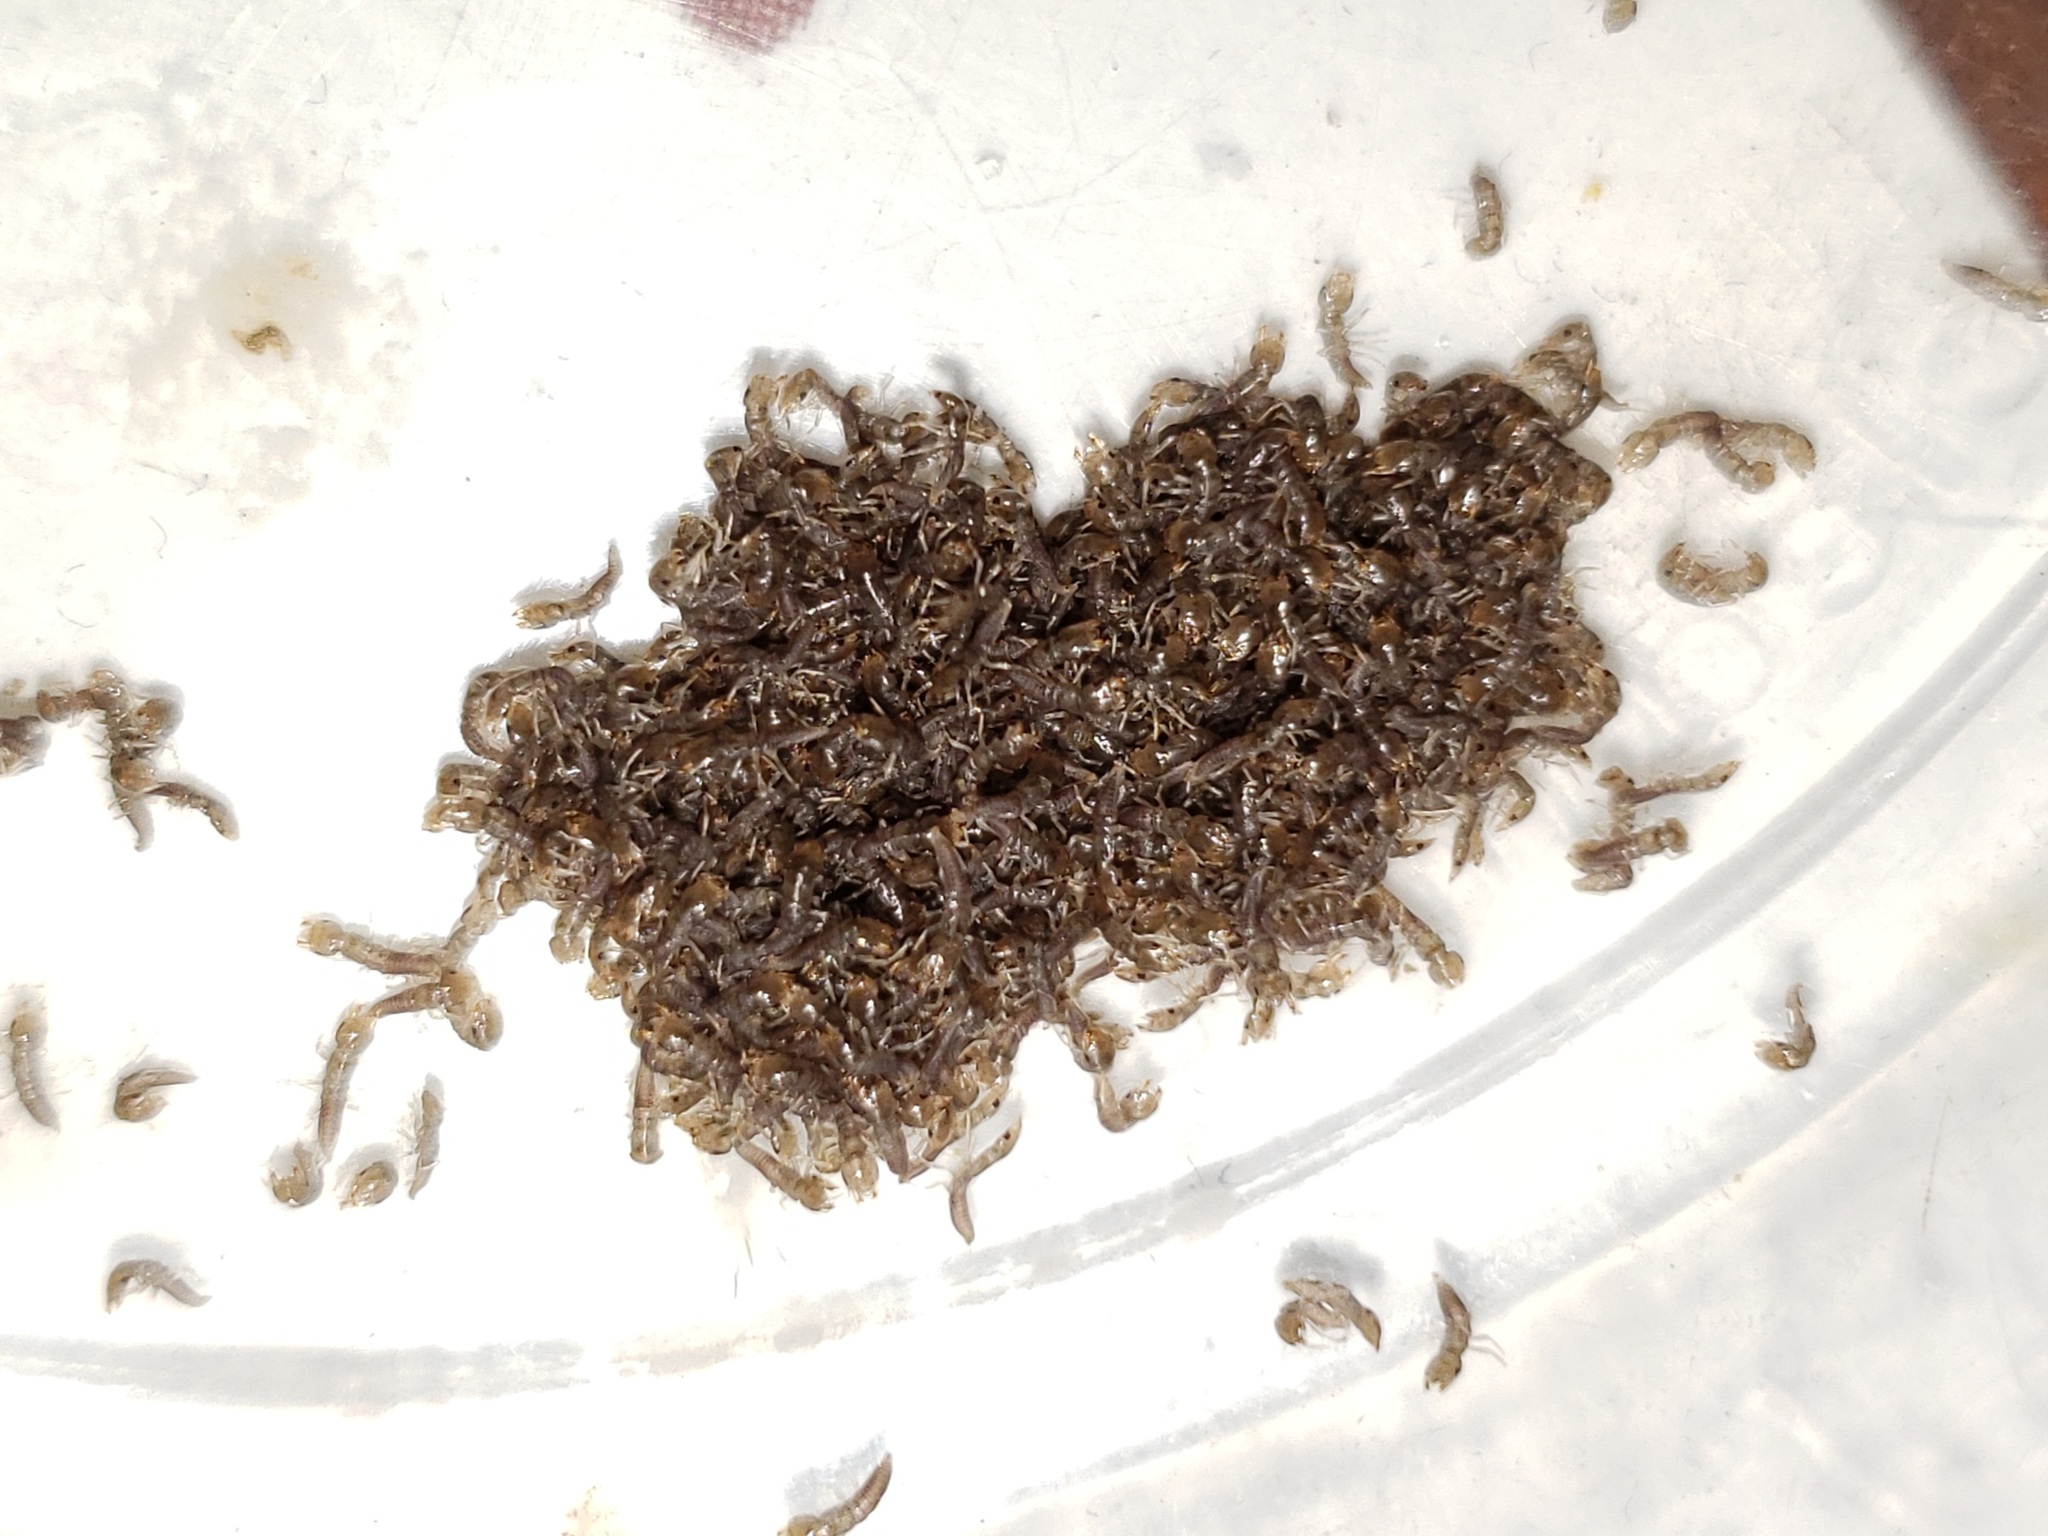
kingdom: Animalia
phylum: Arthropoda
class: Insecta
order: Megaloptera
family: Corydalidae
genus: Corydalus
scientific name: Corydalus cornutus
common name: Dobsonfly
